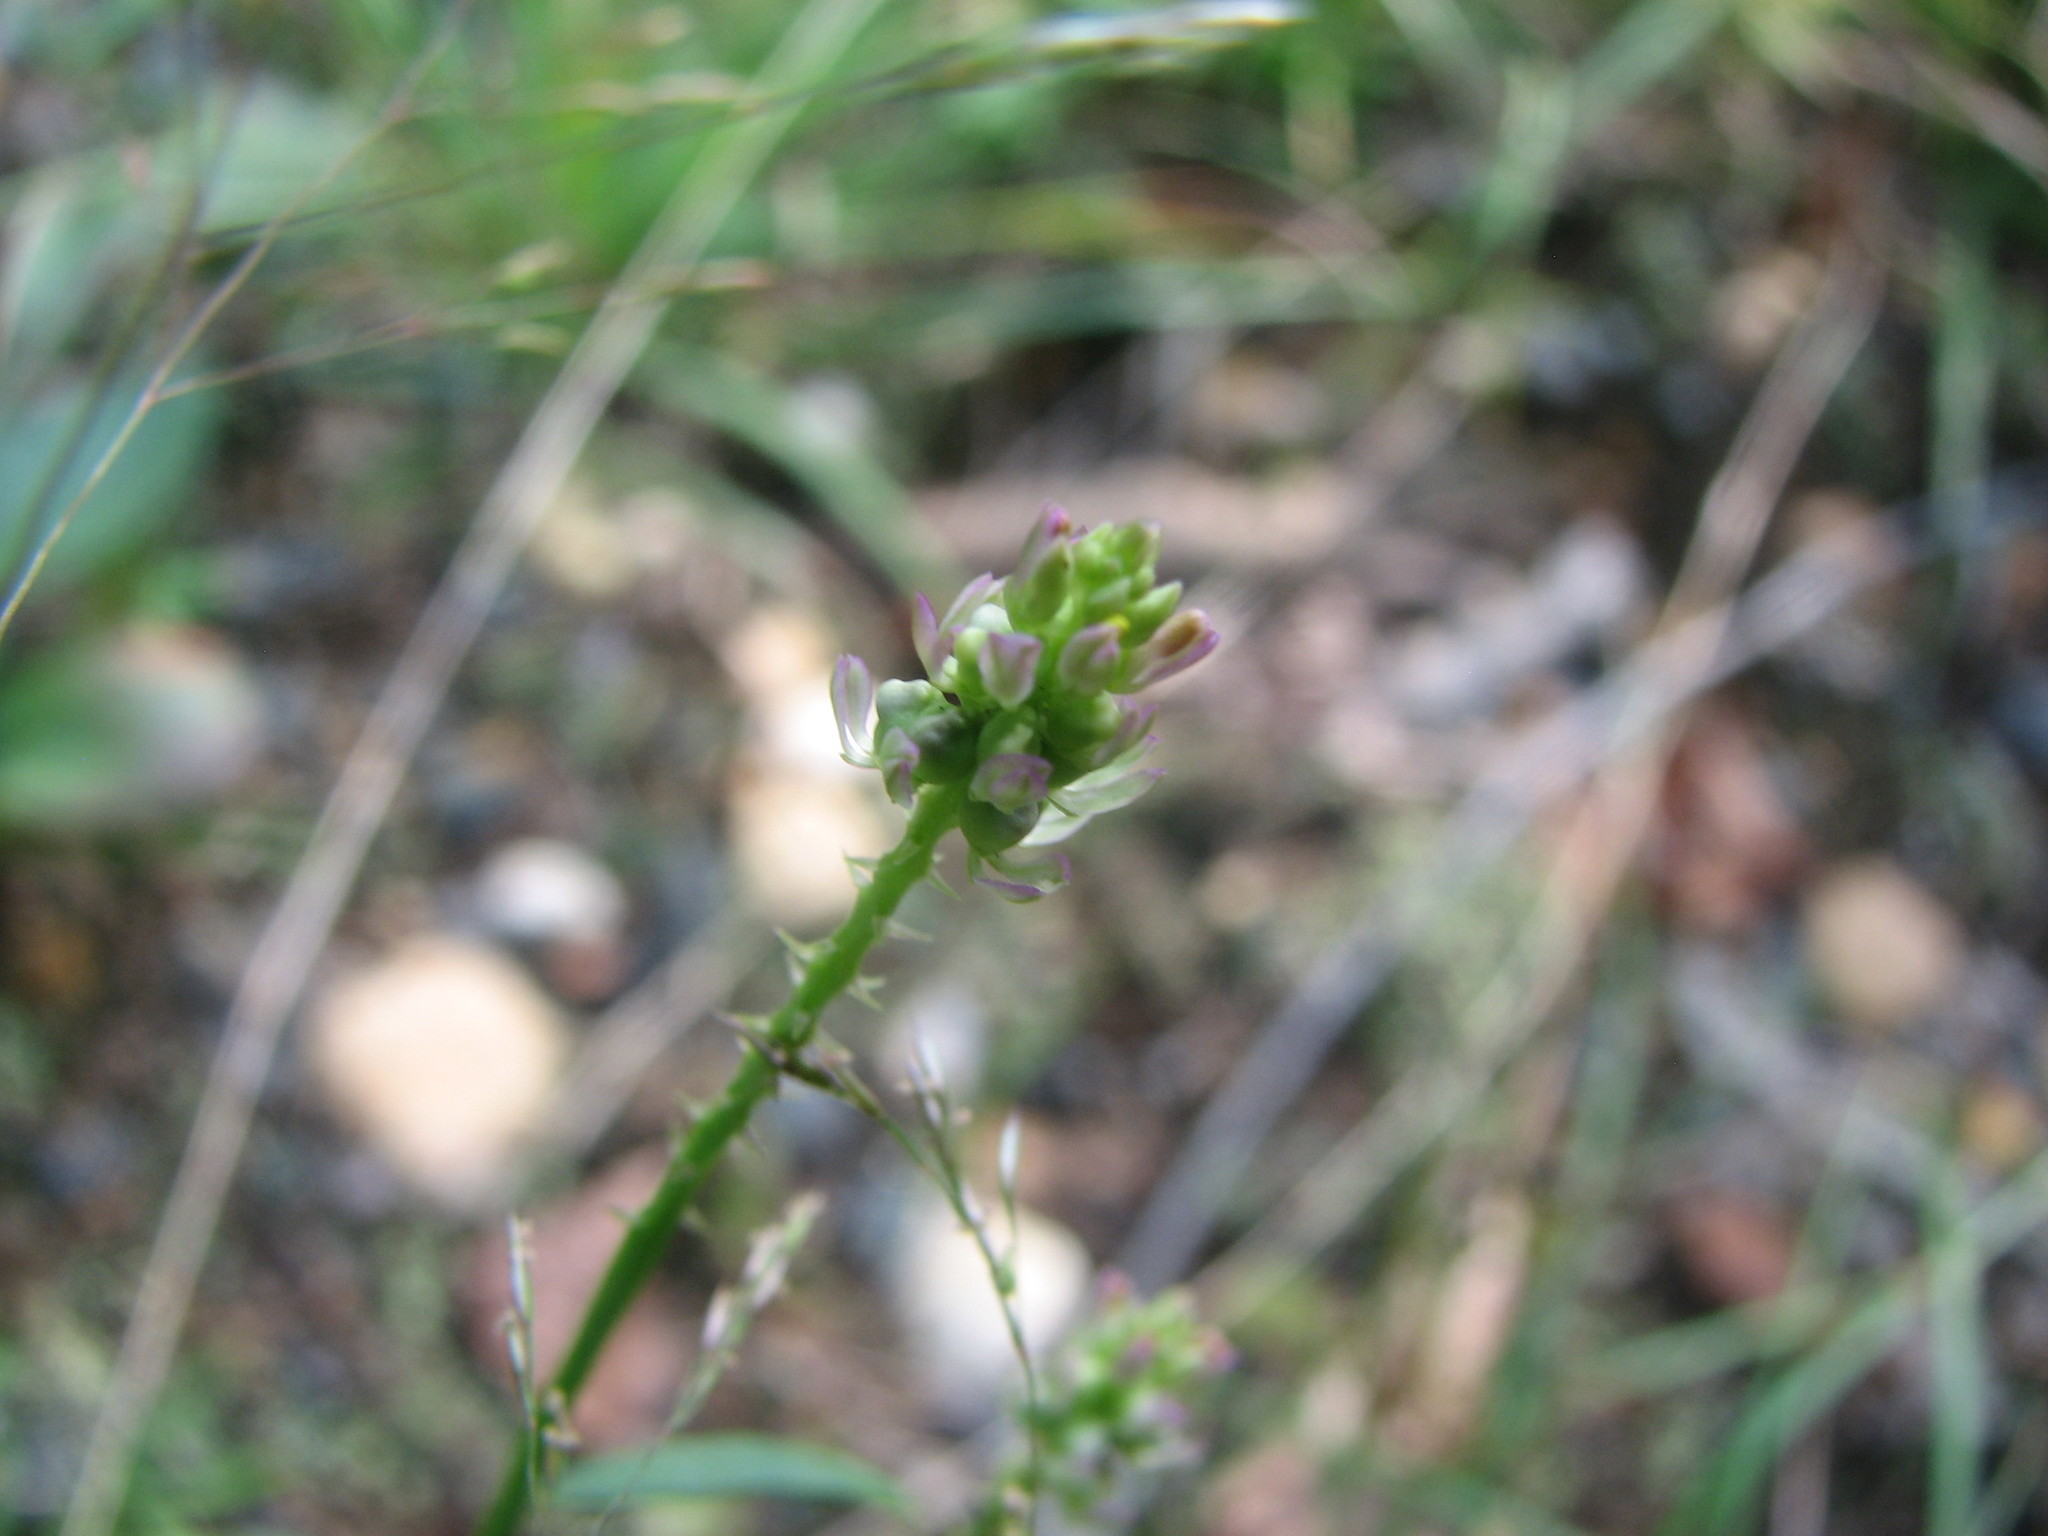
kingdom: Plantae
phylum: Tracheophyta
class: Magnoliopsida
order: Fabales
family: Polygalaceae
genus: Polygala
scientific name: Polygala nuttallii
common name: Nuttall's milkwort
